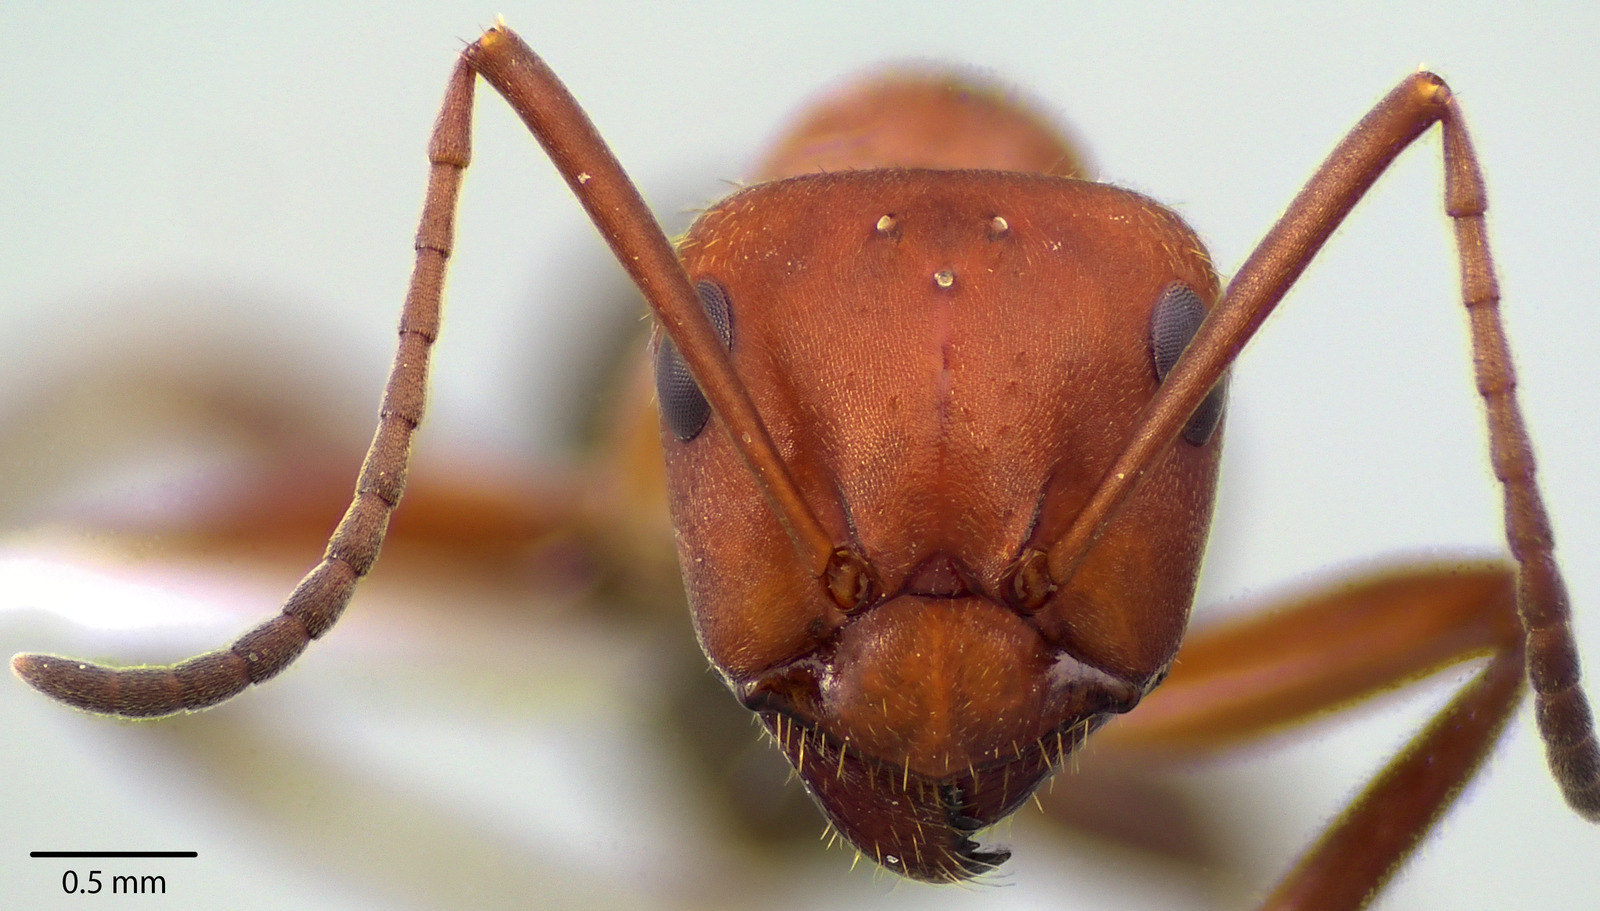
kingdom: Animalia
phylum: Arthropoda
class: Insecta
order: Hymenoptera
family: Formicidae
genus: Formica
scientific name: Formica obscuriventris
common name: Northern red wood ant
